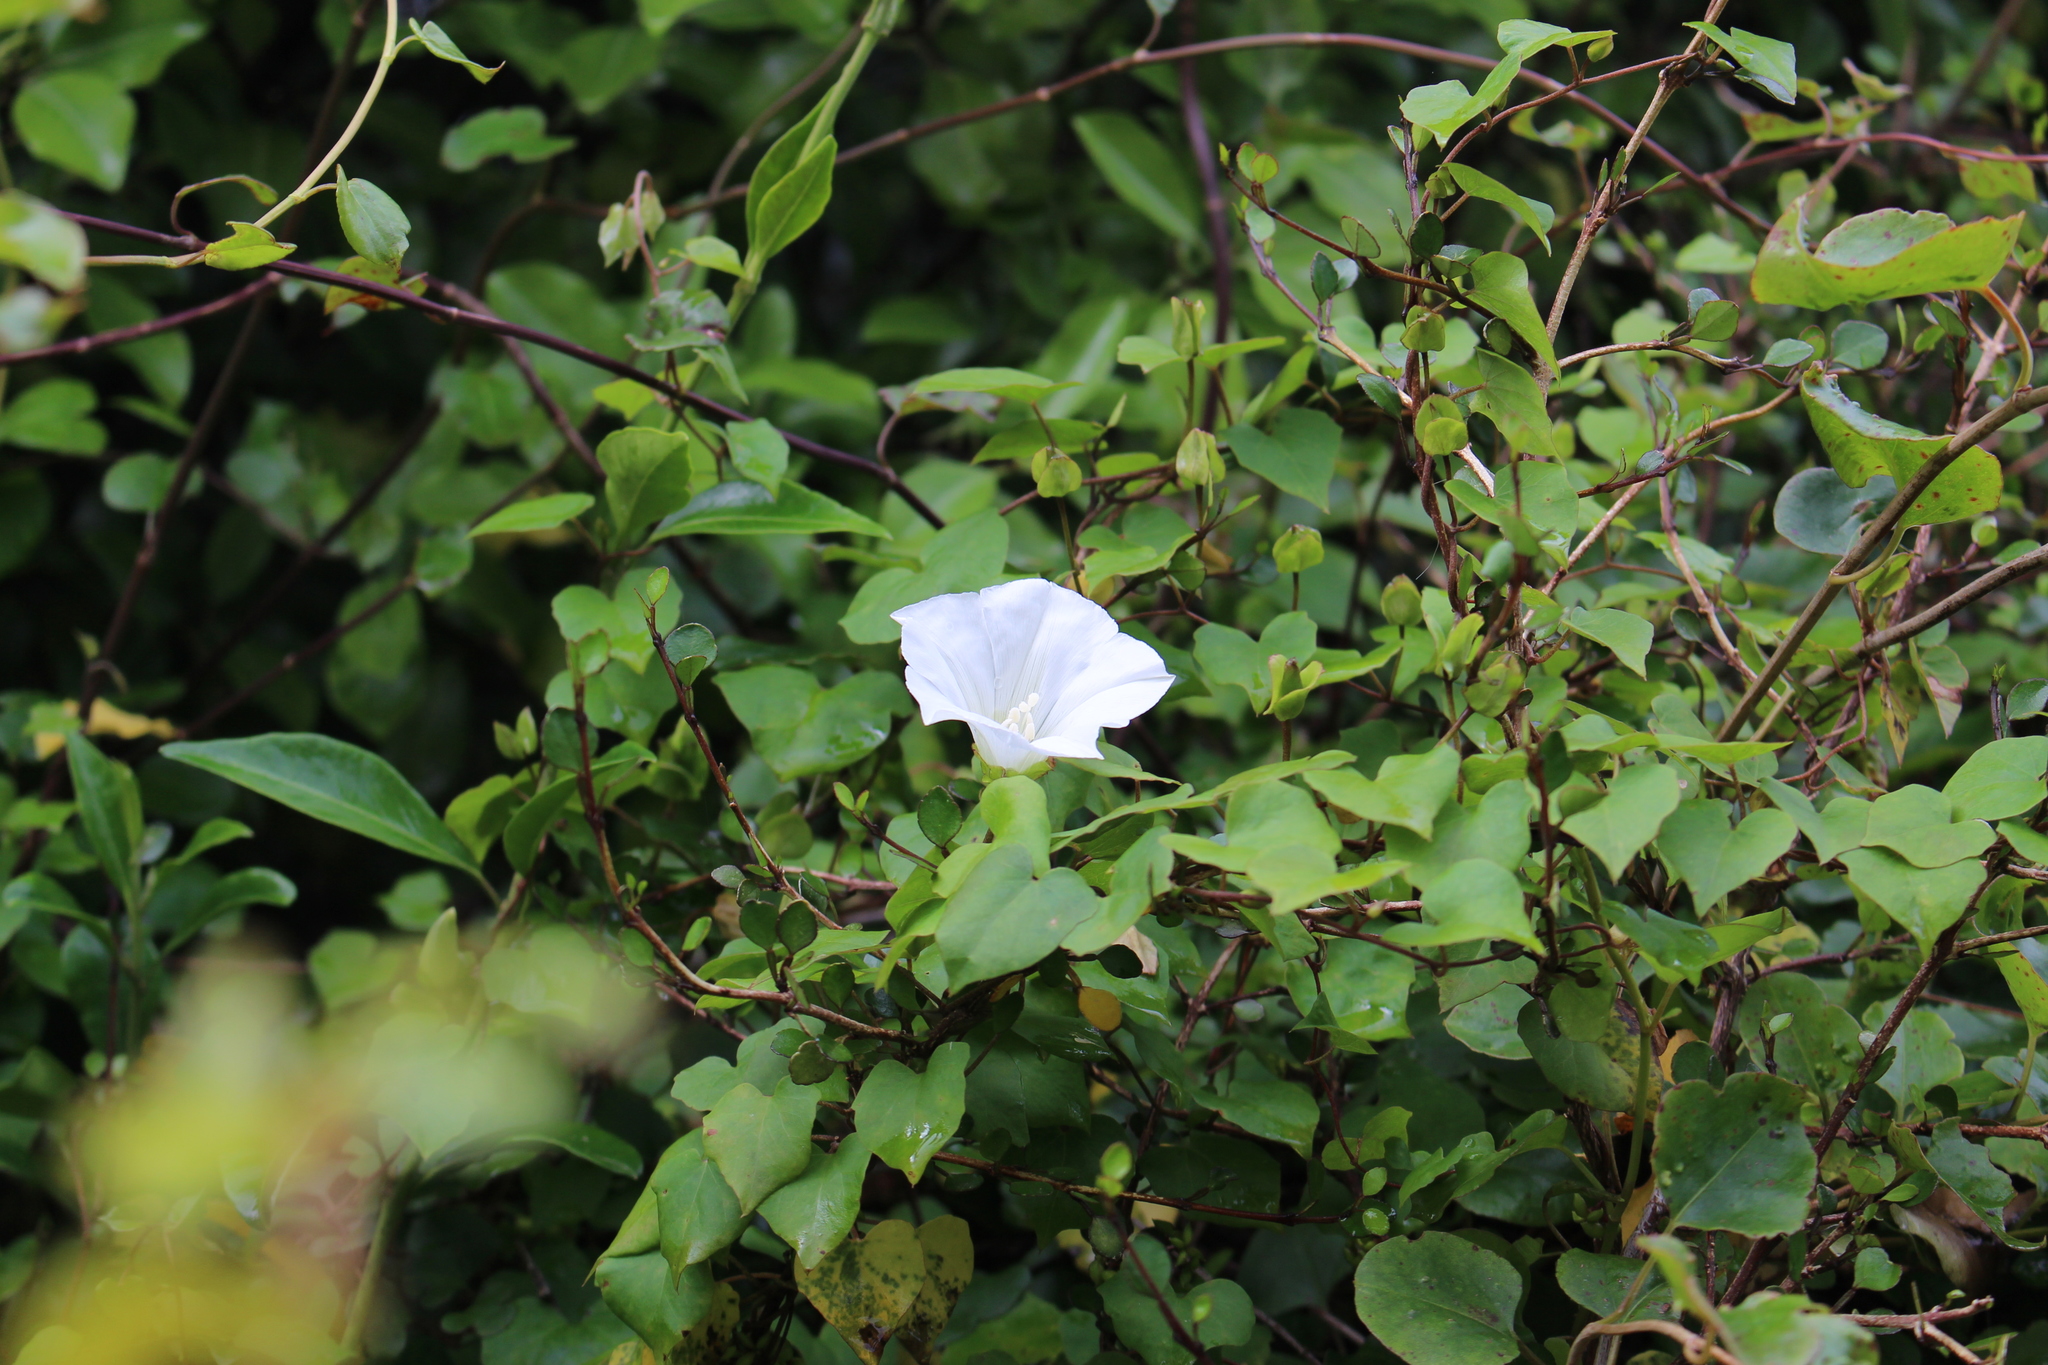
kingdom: Plantae
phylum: Tracheophyta
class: Magnoliopsida
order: Solanales
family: Convolvulaceae
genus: Calystegia
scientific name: Calystegia tuguriorum
